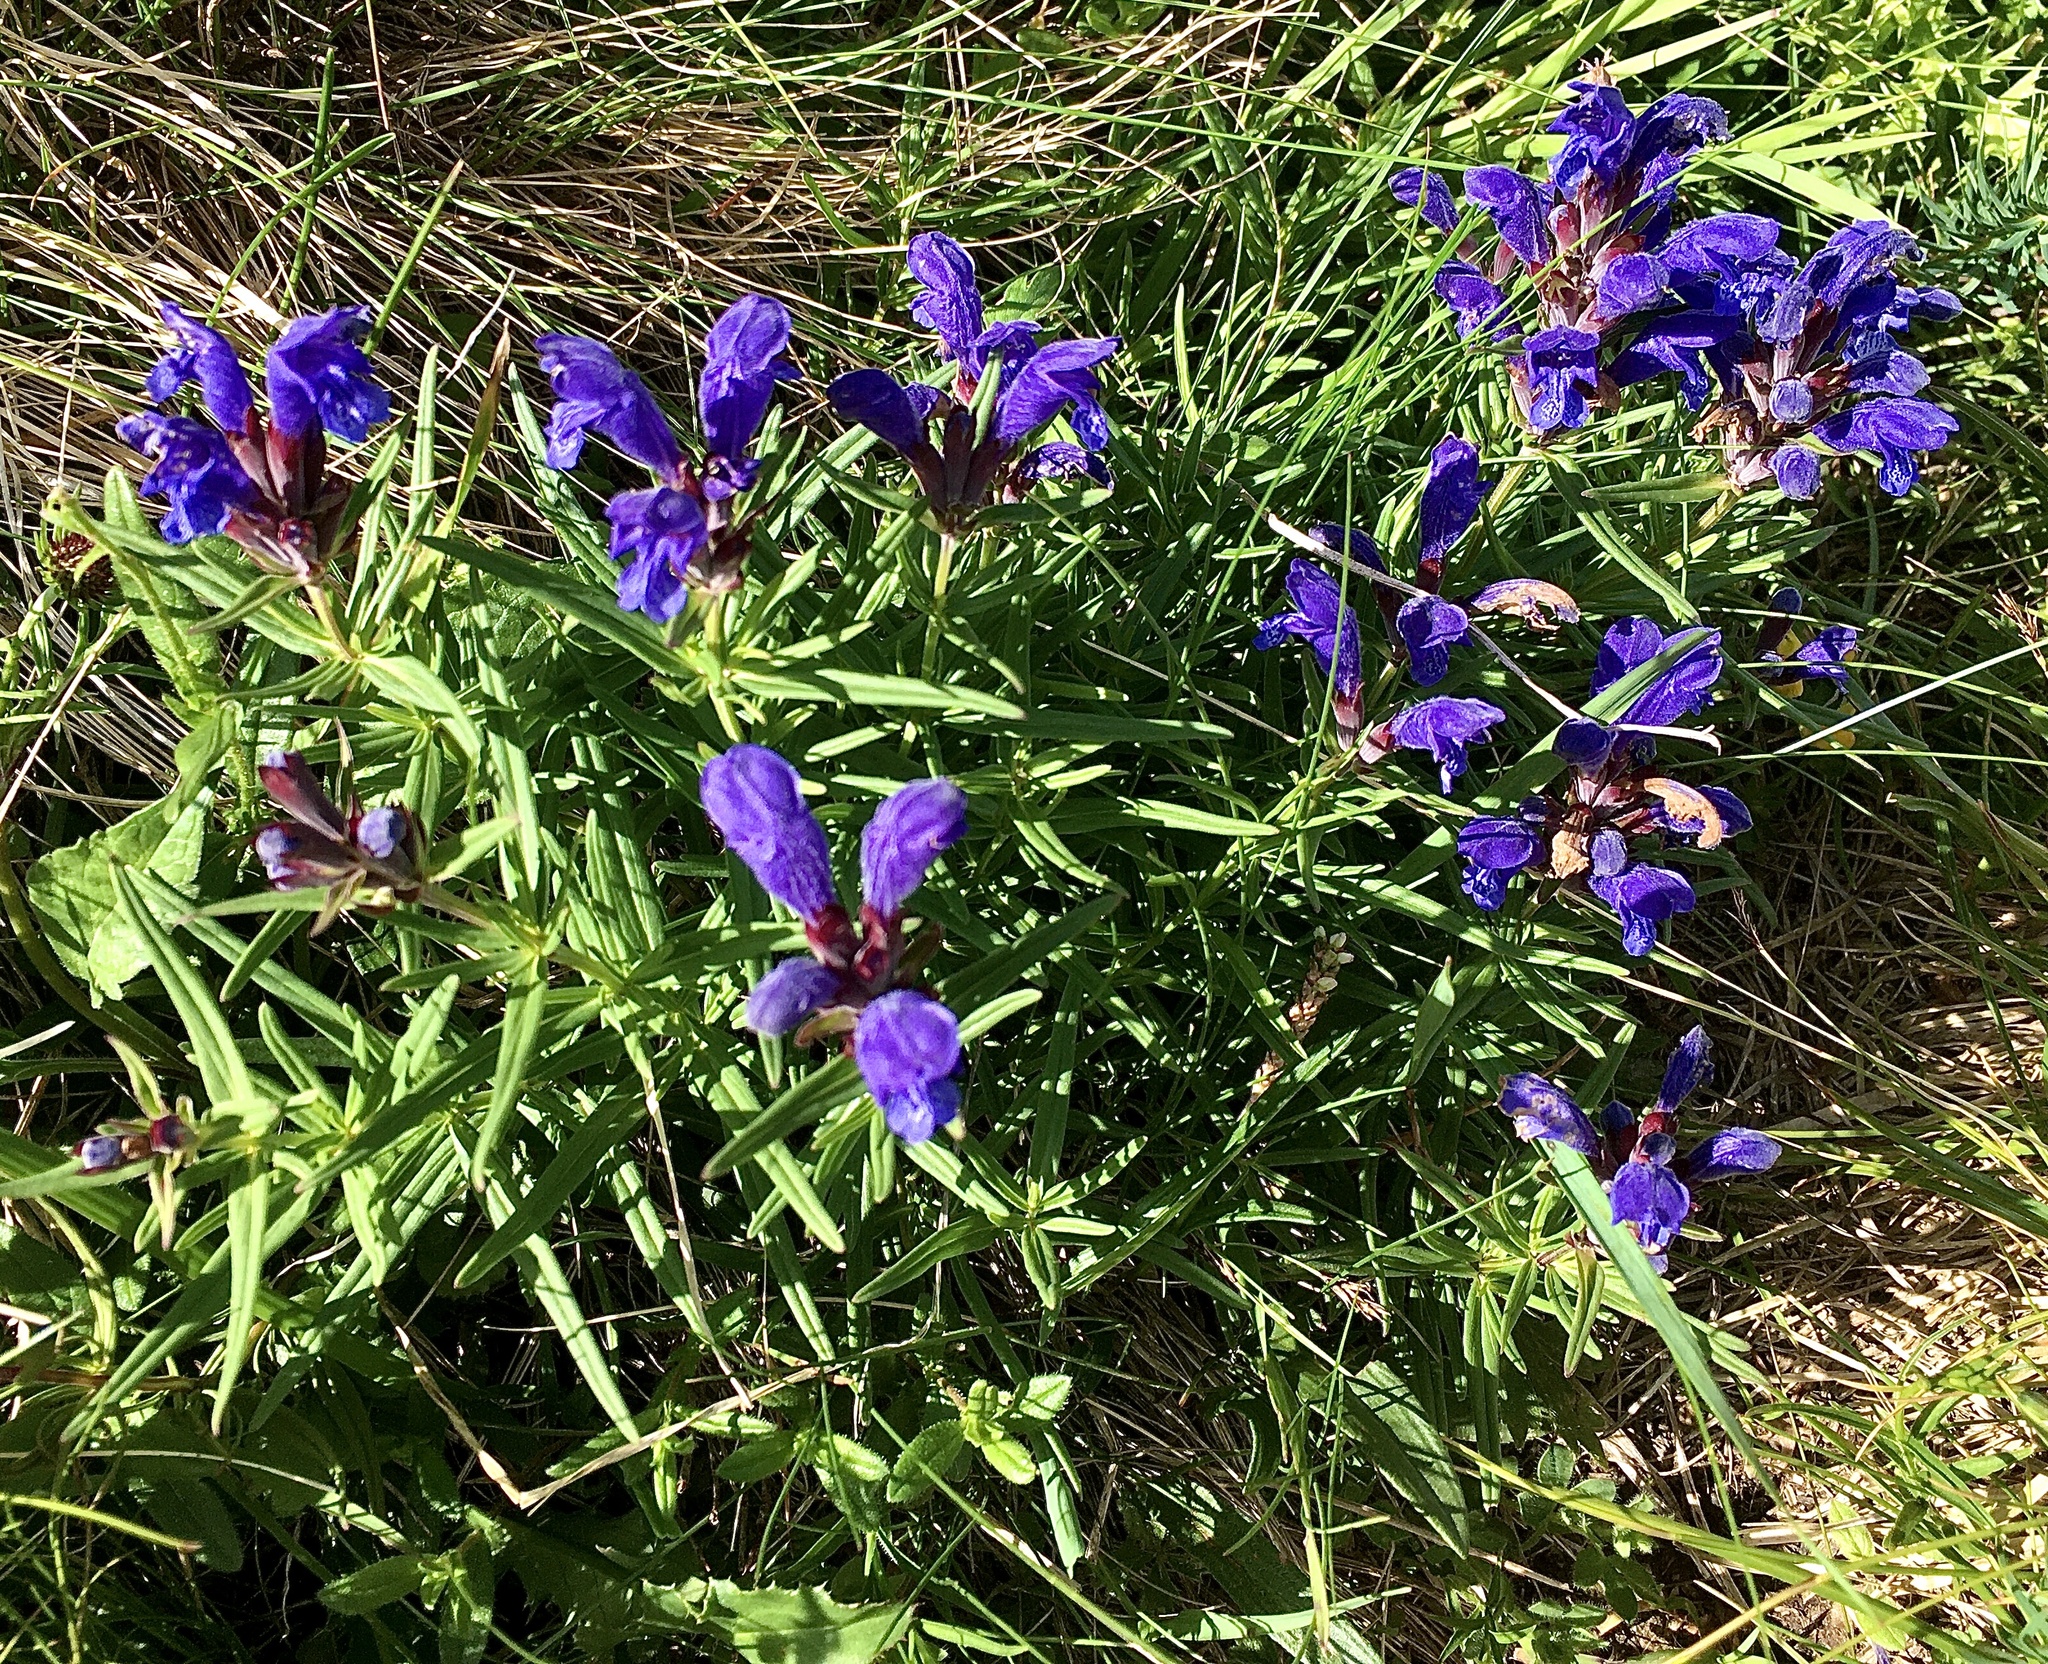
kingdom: Plantae
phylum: Tracheophyta
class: Magnoliopsida
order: Lamiales
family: Lamiaceae
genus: Dracocephalum
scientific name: Dracocephalum ruyschiana
